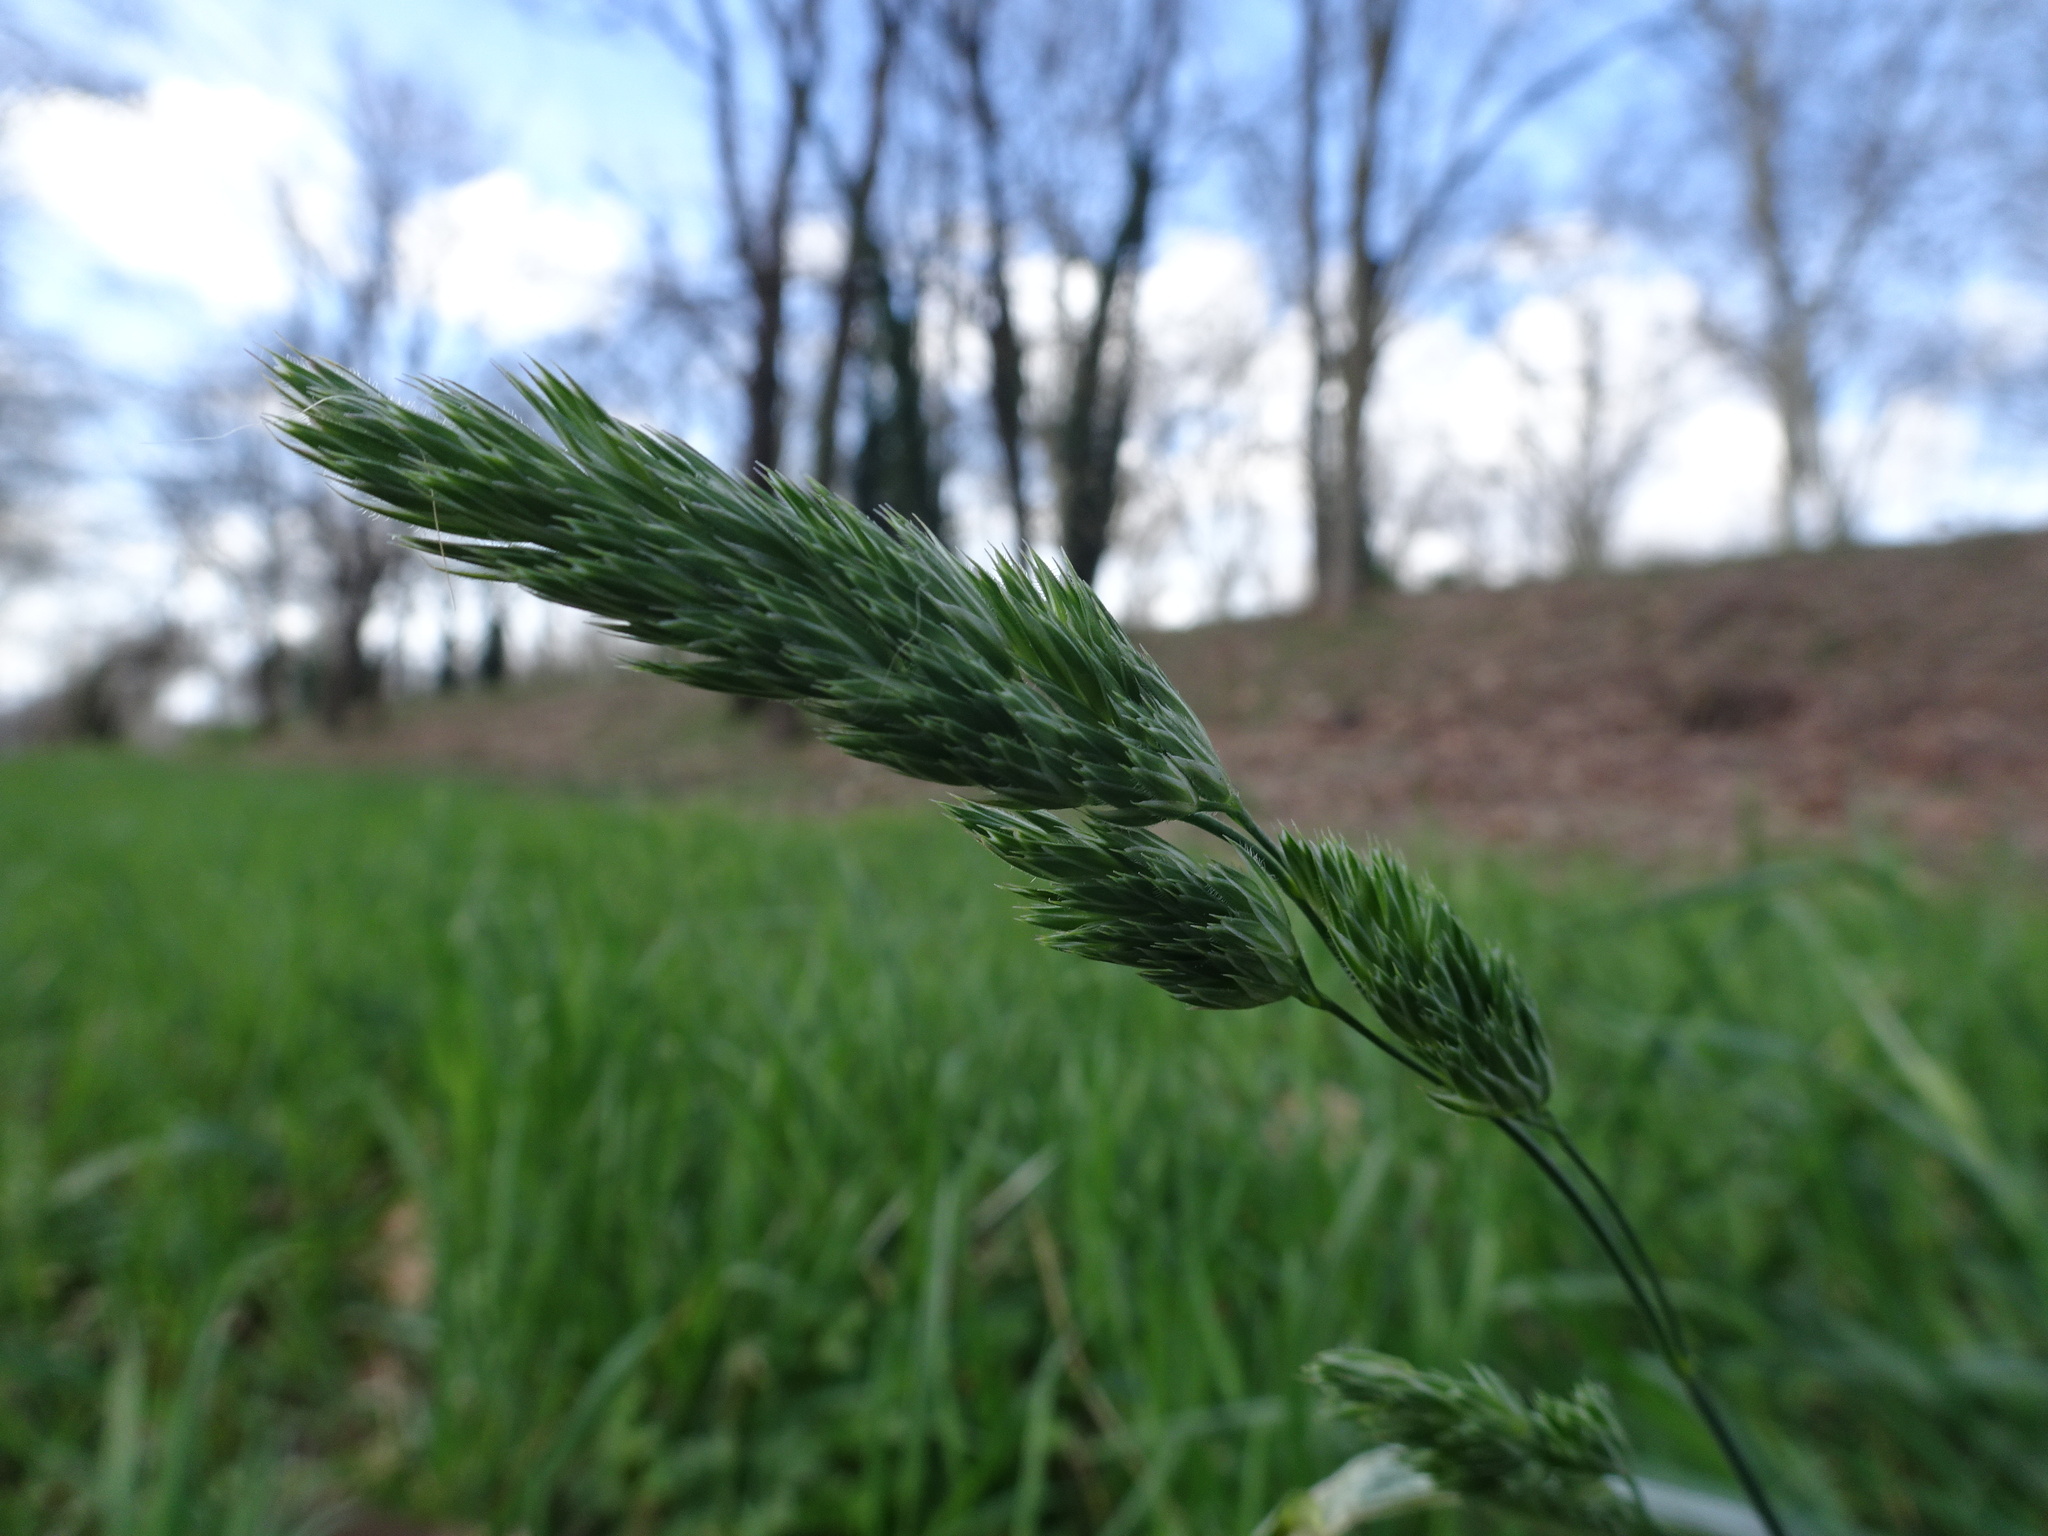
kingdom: Plantae
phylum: Tracheophyta
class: Liliopsida
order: Poales
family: Poaceae
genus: Dactylis
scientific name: Dactylis glomerata
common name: Orchardgrass
